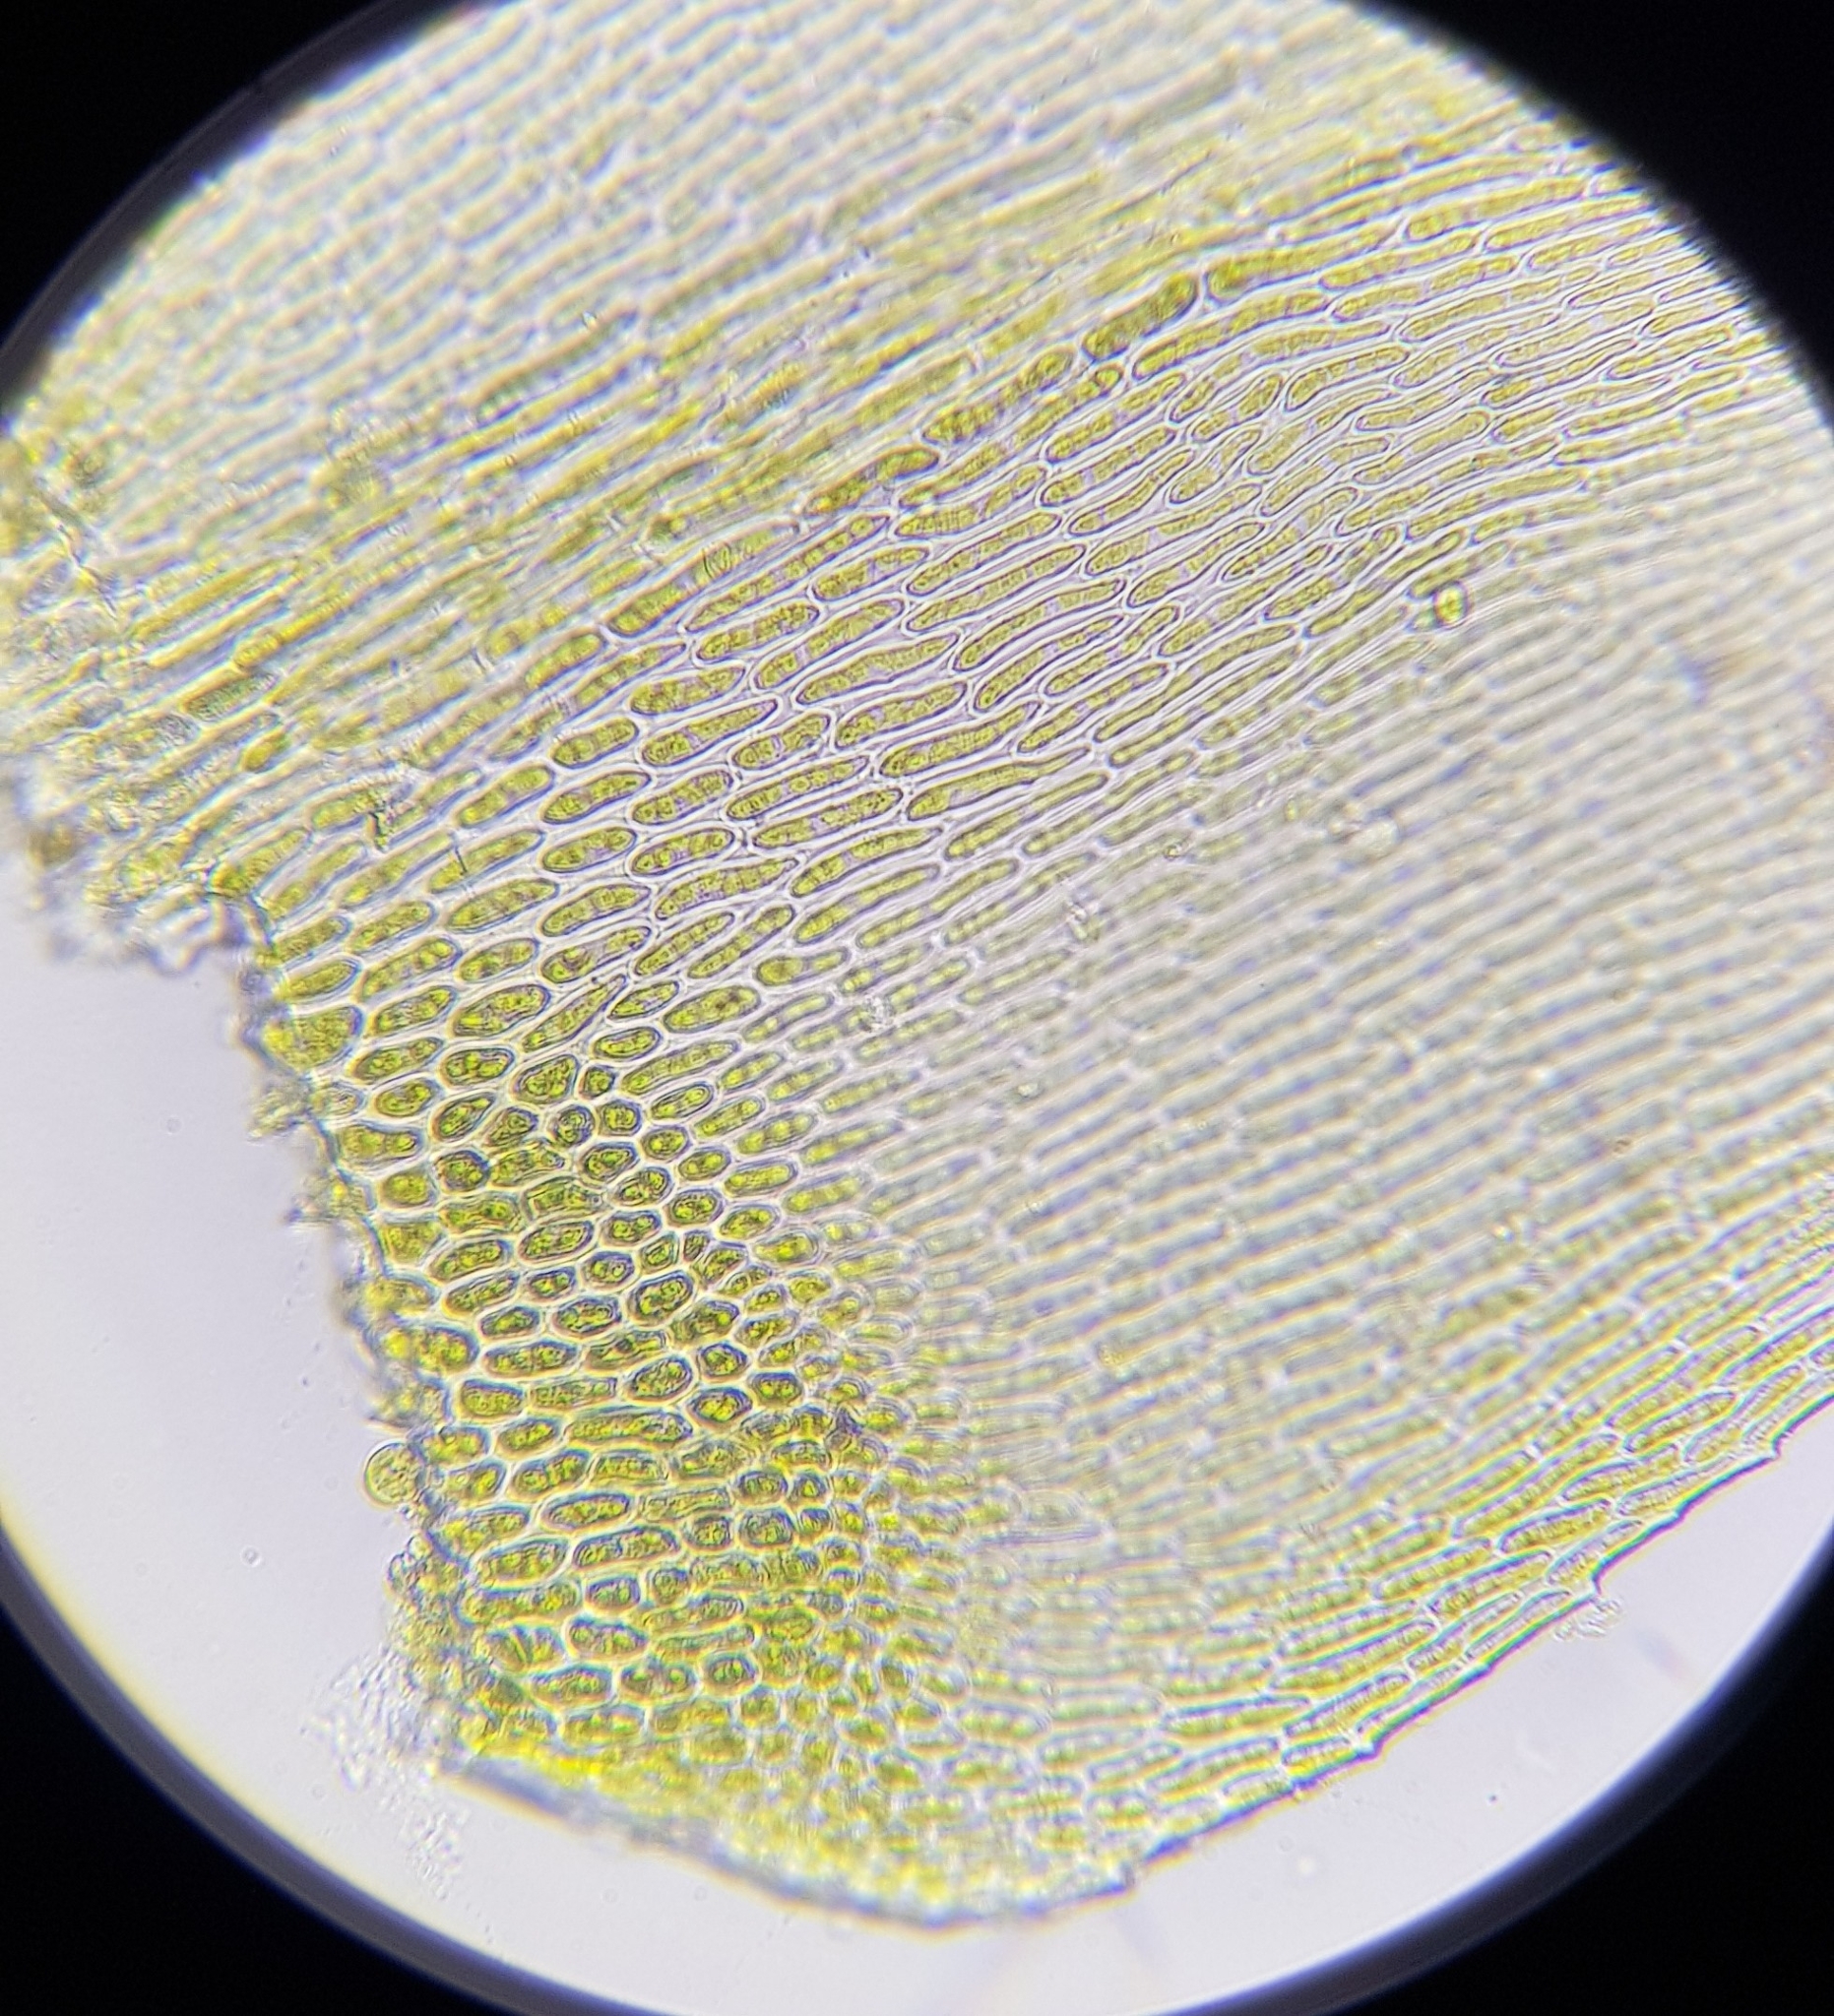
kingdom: Plantae
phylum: Bryophyta
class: Bryopsida
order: Hypnales
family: Lembophyllaceae
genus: Pseudisothecium
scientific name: Pseudisothecium myosuroides
